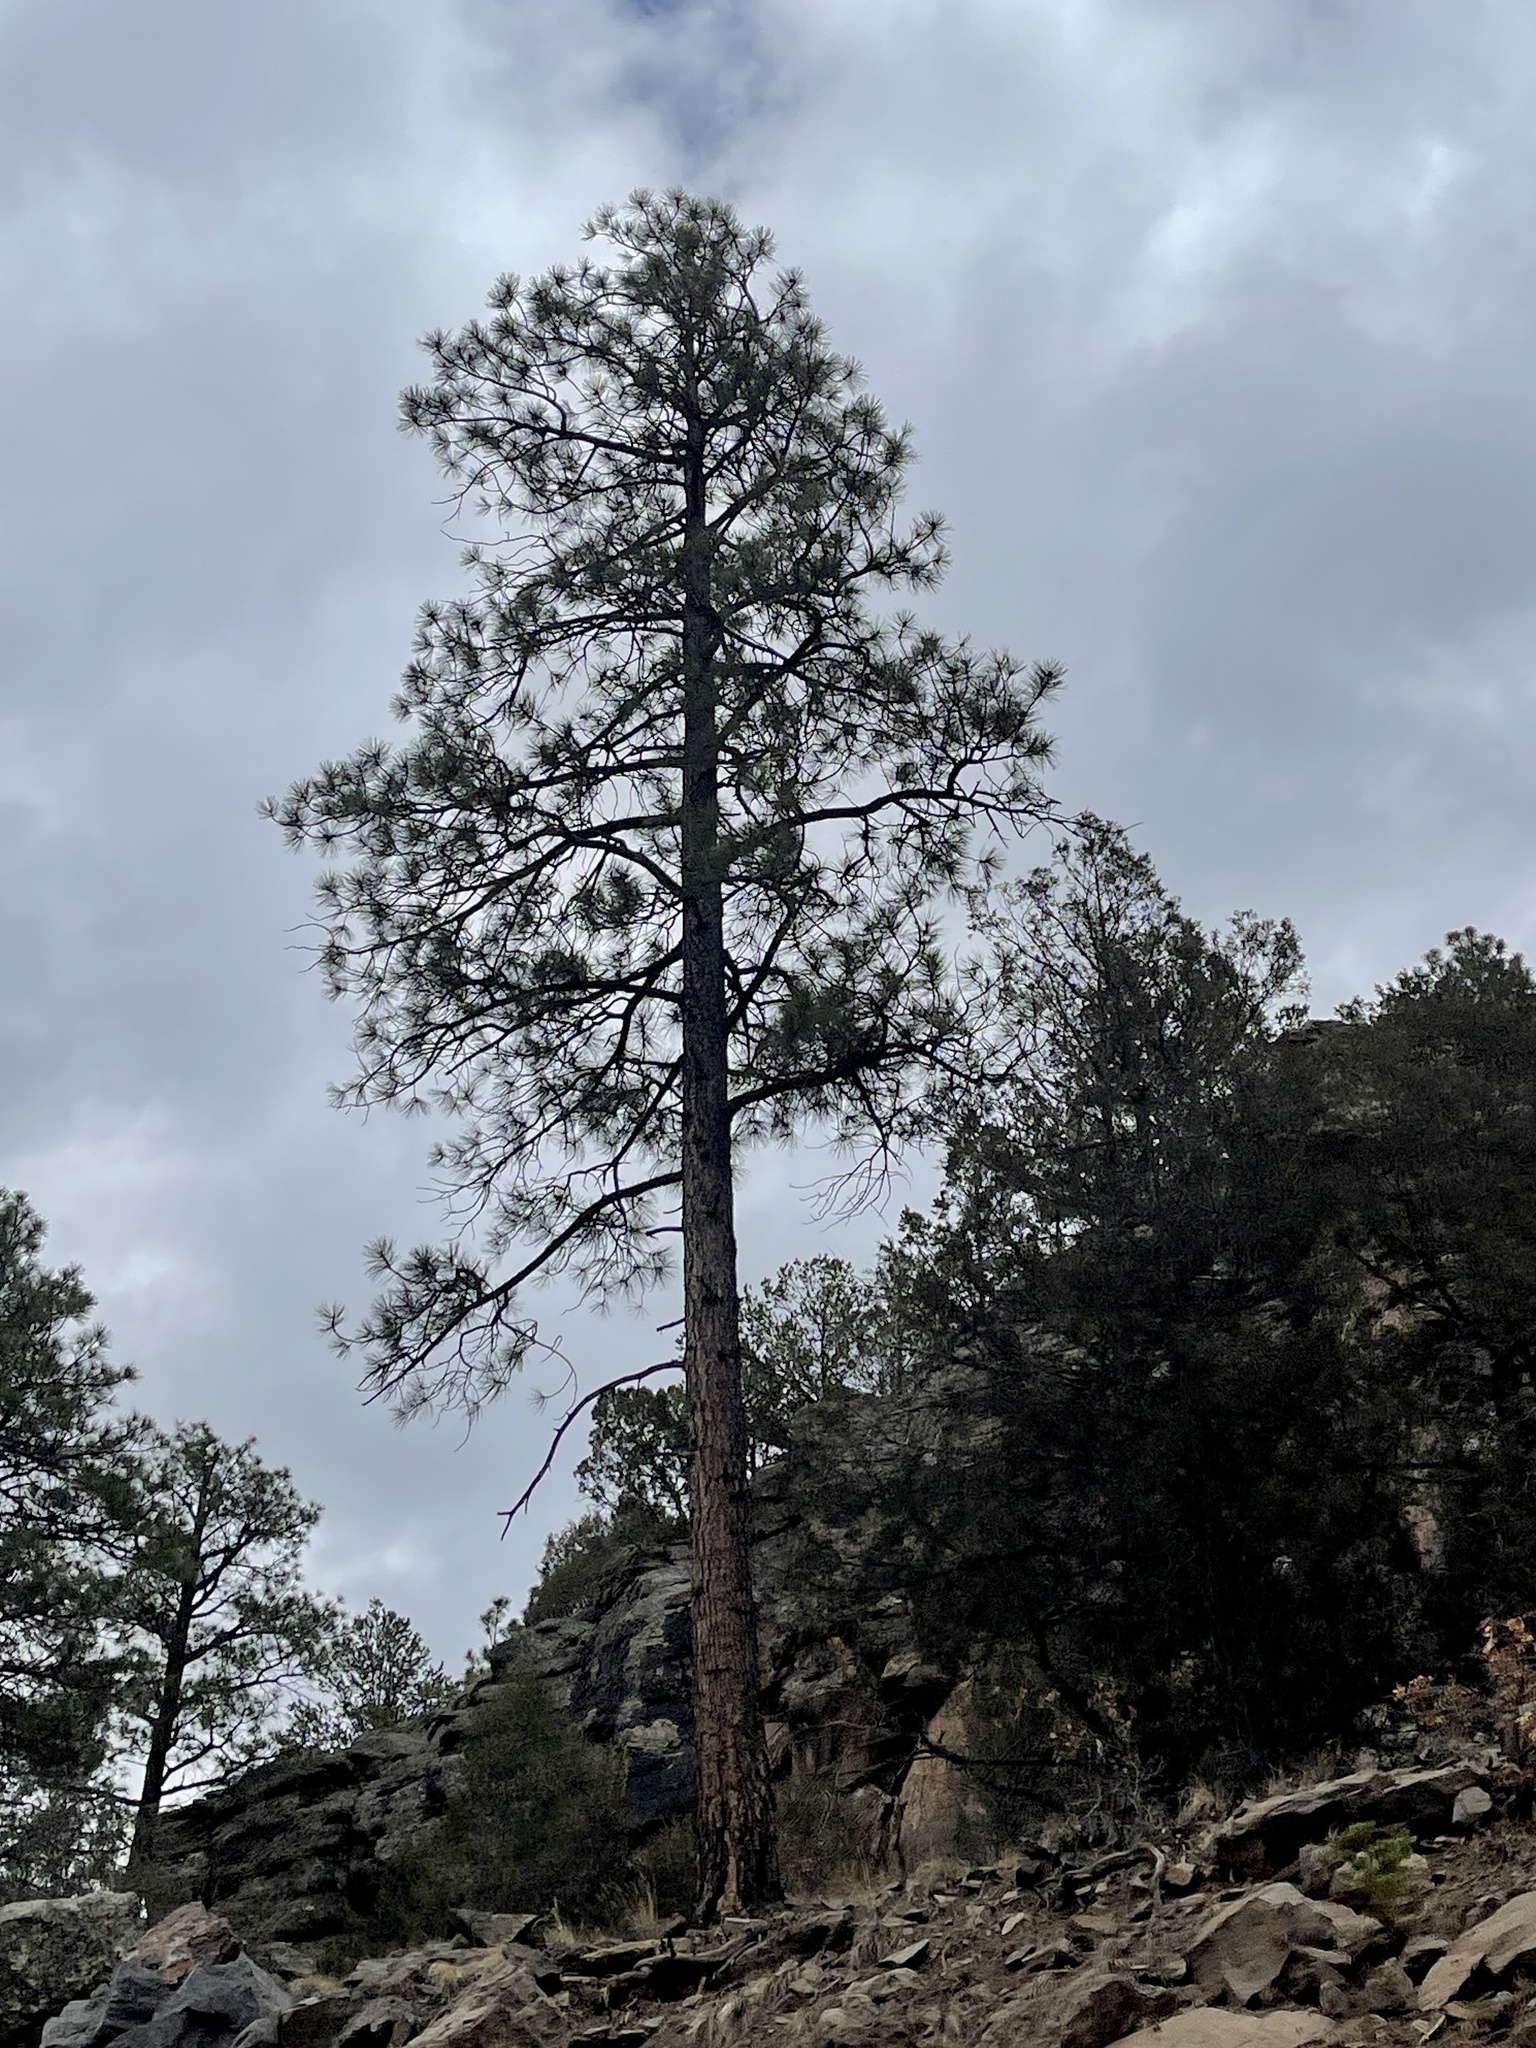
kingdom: Plantae
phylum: Tracheophyta
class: Pinopsida
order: Pinales
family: Pinaceae
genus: Pinus
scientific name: Pinus ponderosa
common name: Western yellow-pine
